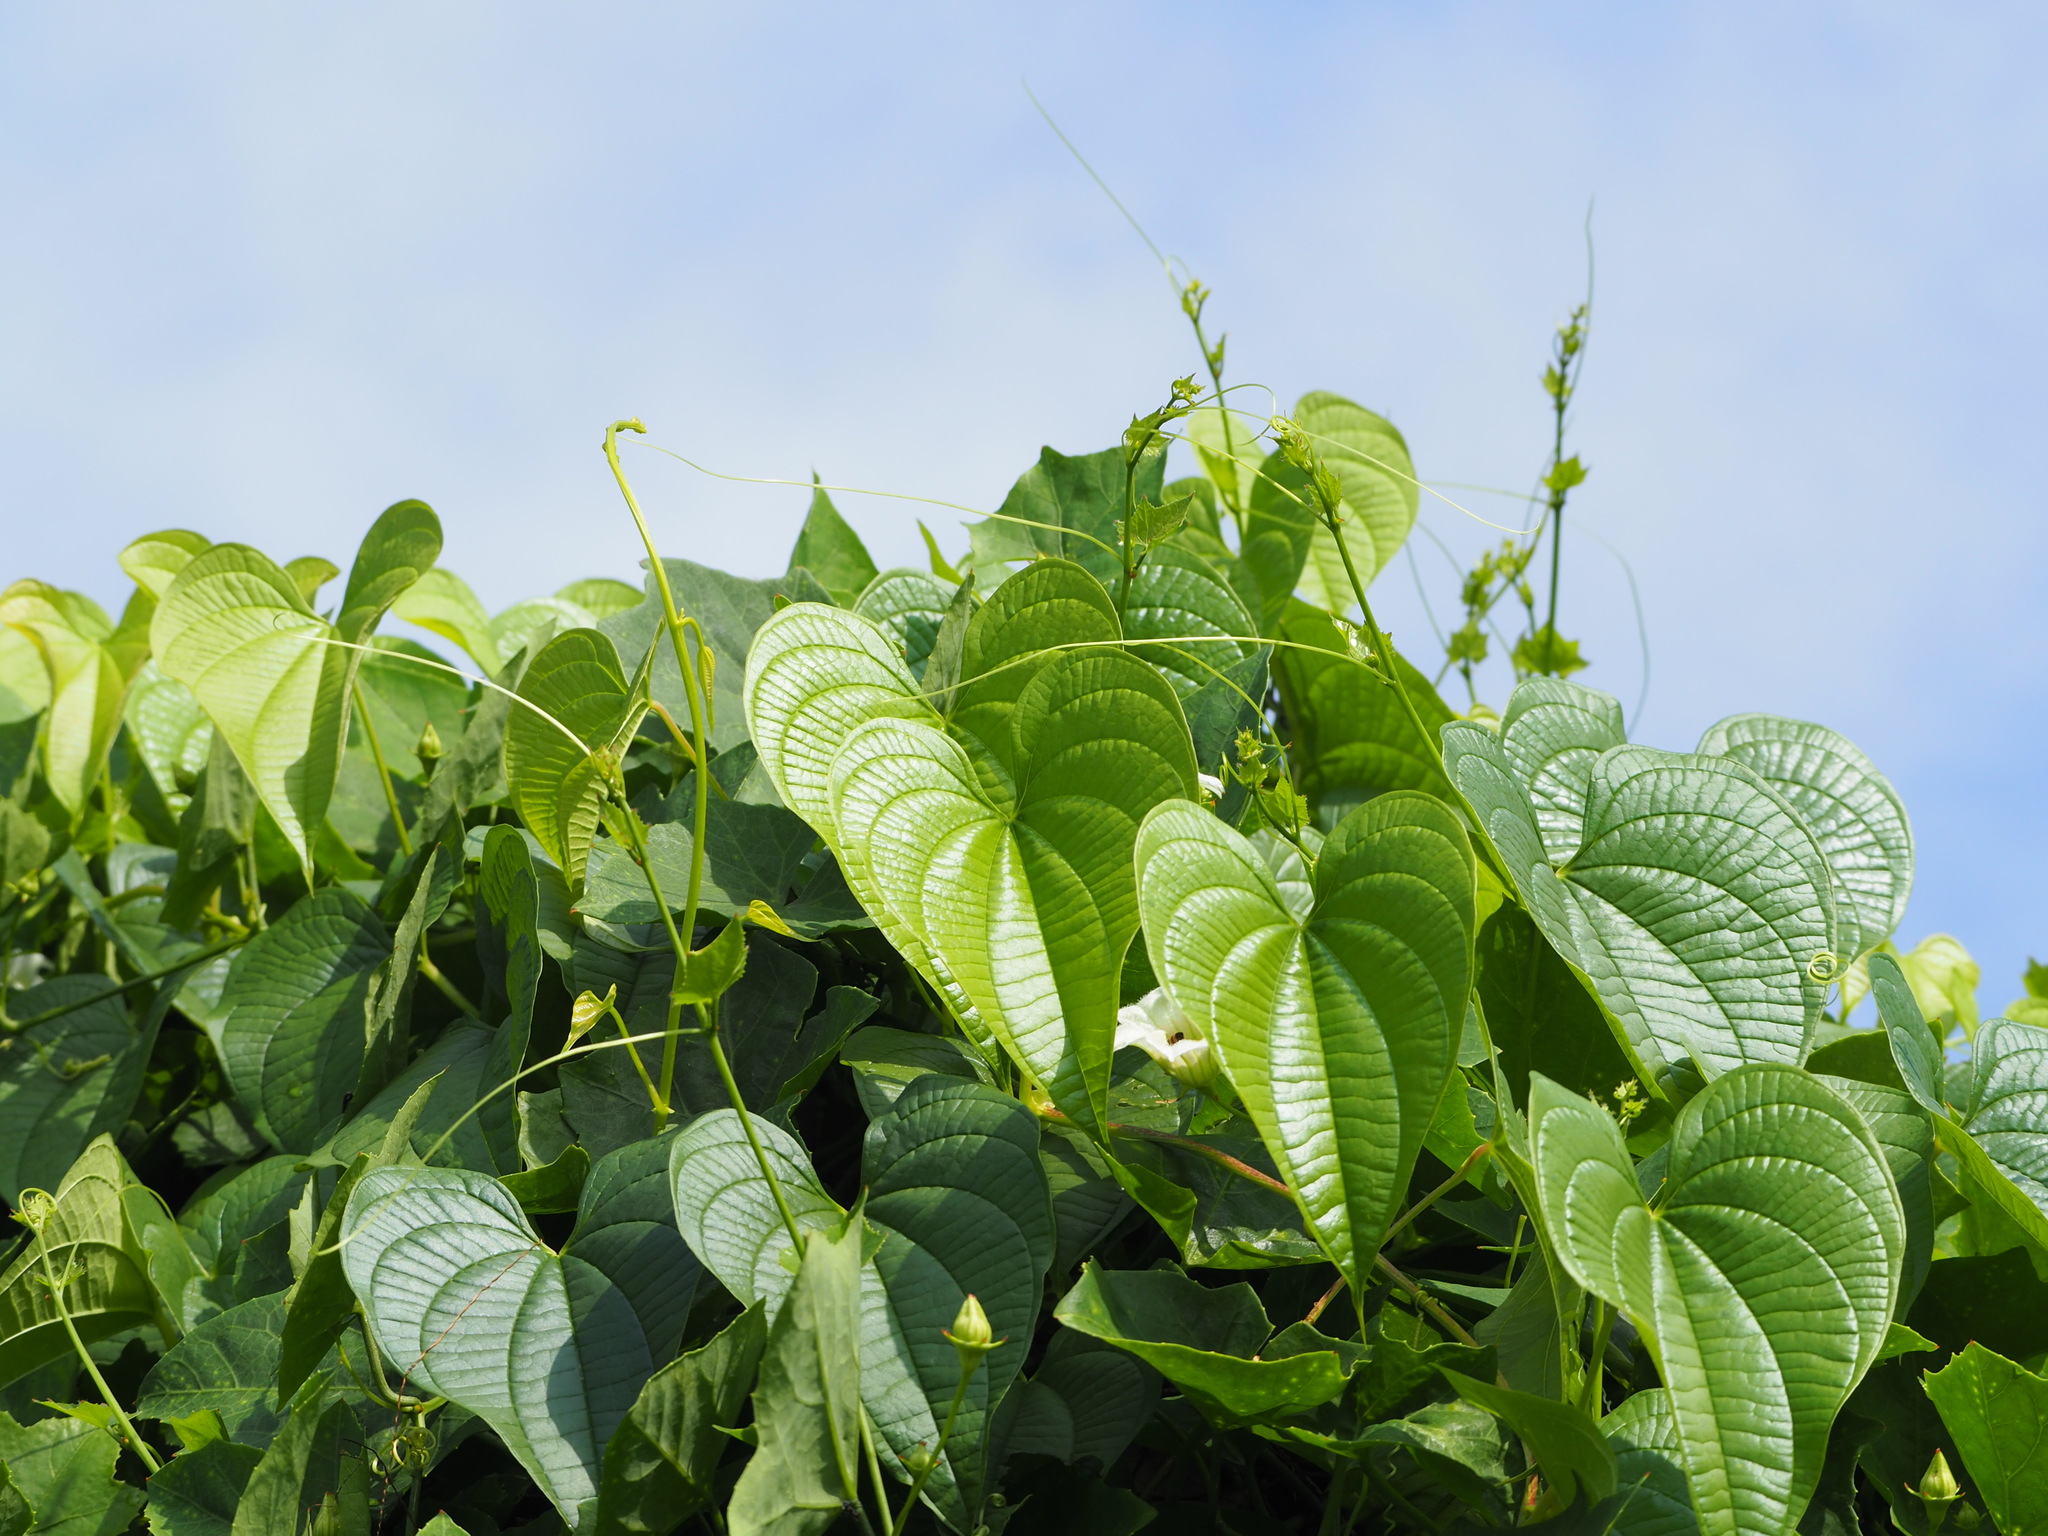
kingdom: Plantae
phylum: Tracheophyta
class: Liliopsida
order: Dioscoreales
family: Dioscoreaceae
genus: Dioscorea
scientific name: Dioscorea bulbifera
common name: Air yam
